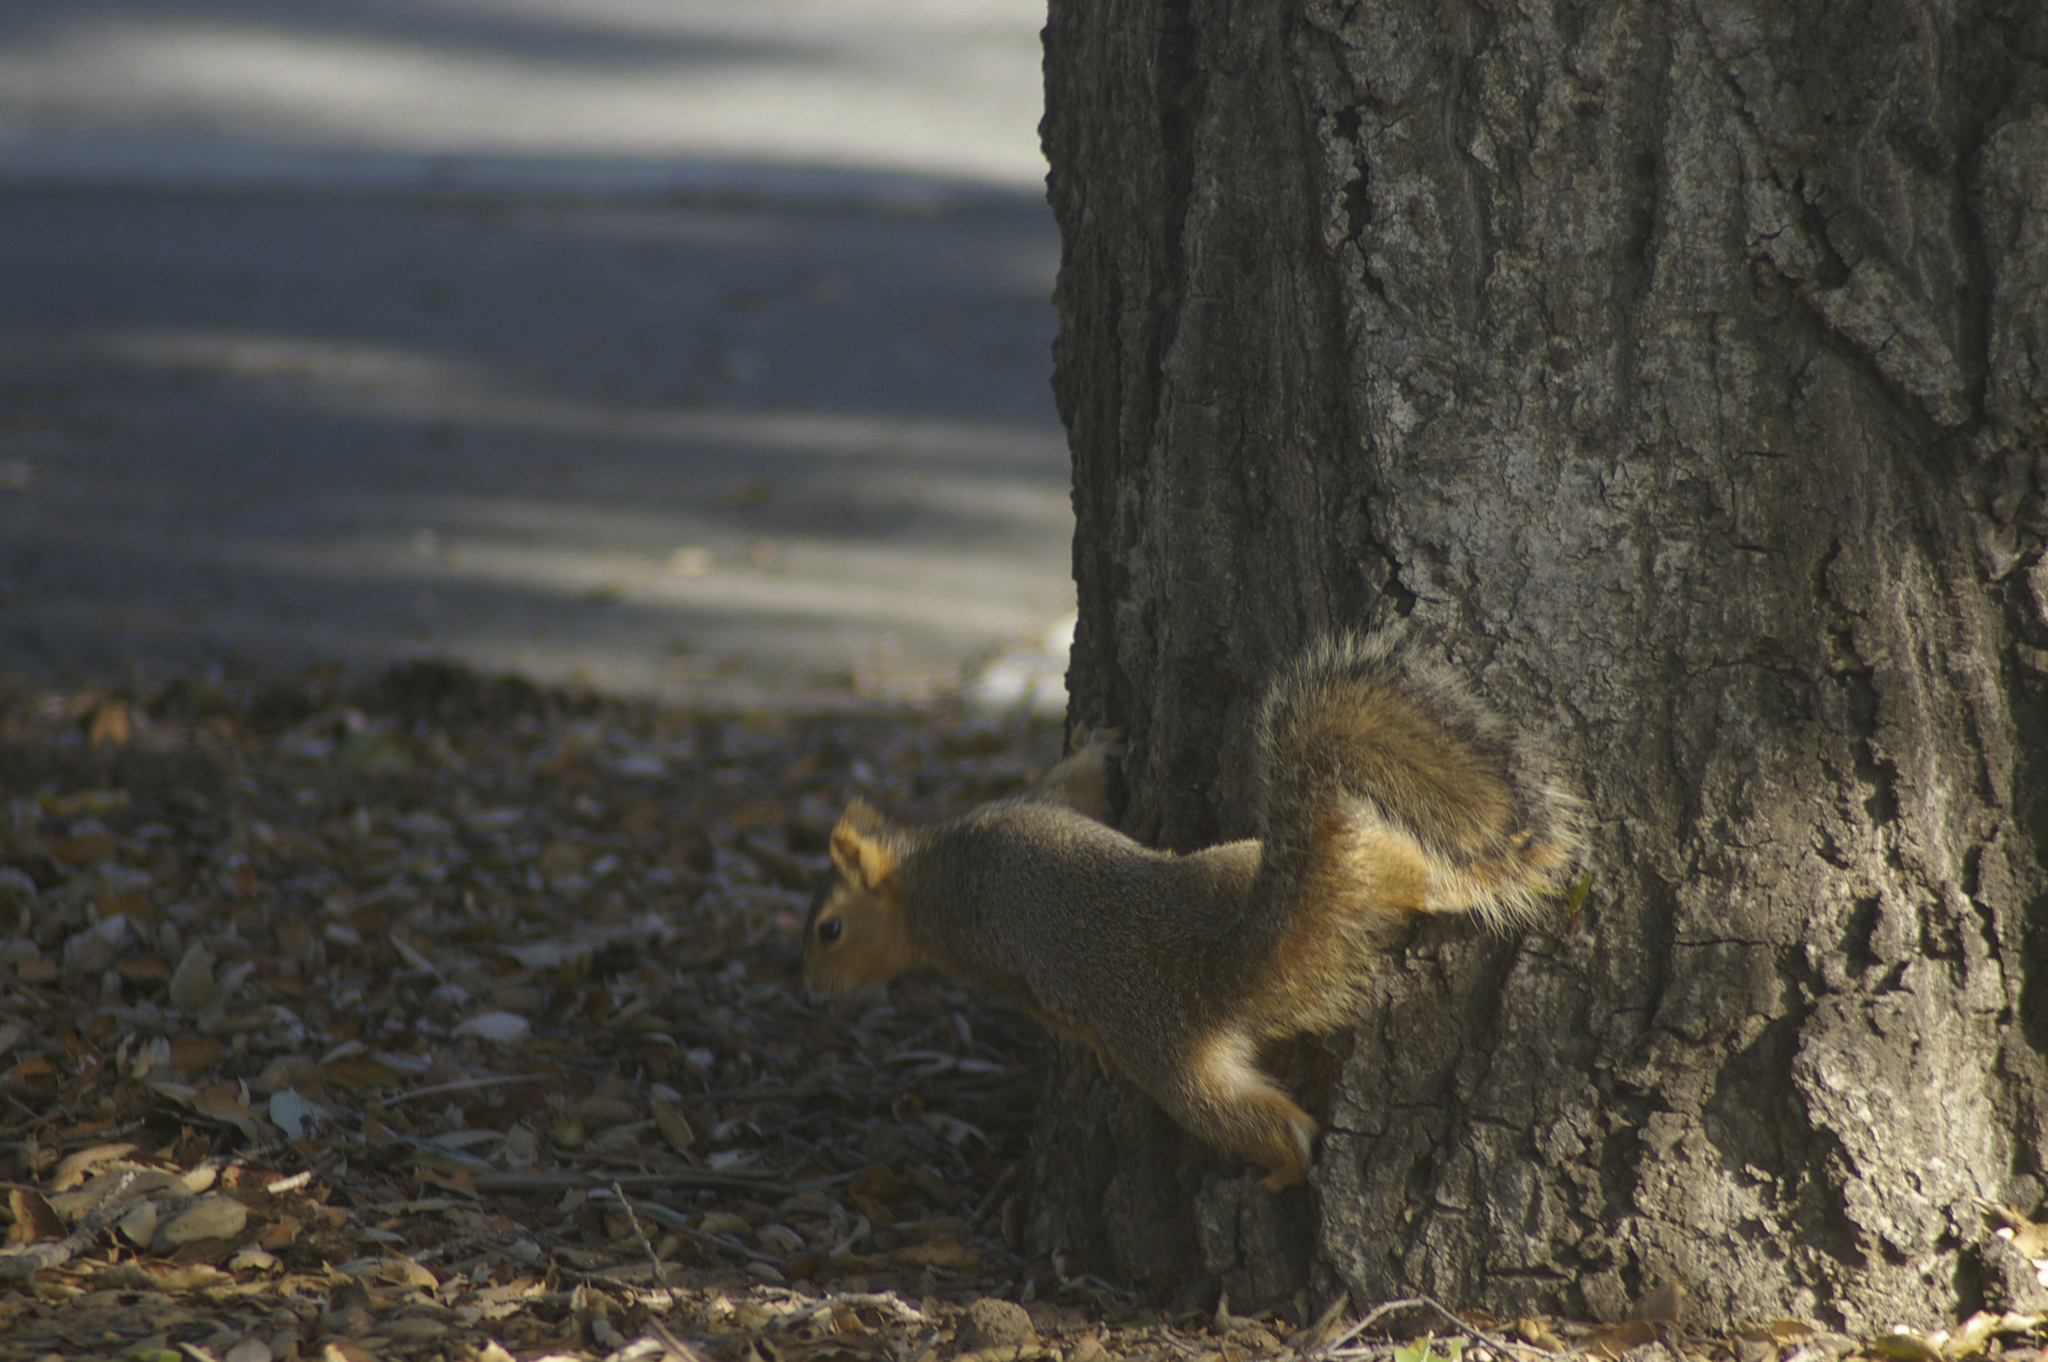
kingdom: Animalia
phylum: Chordata
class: Mammalia
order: Rodentia
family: Sciuridae
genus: Sciurus
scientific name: Sciurus niger
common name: Fox squirrel
